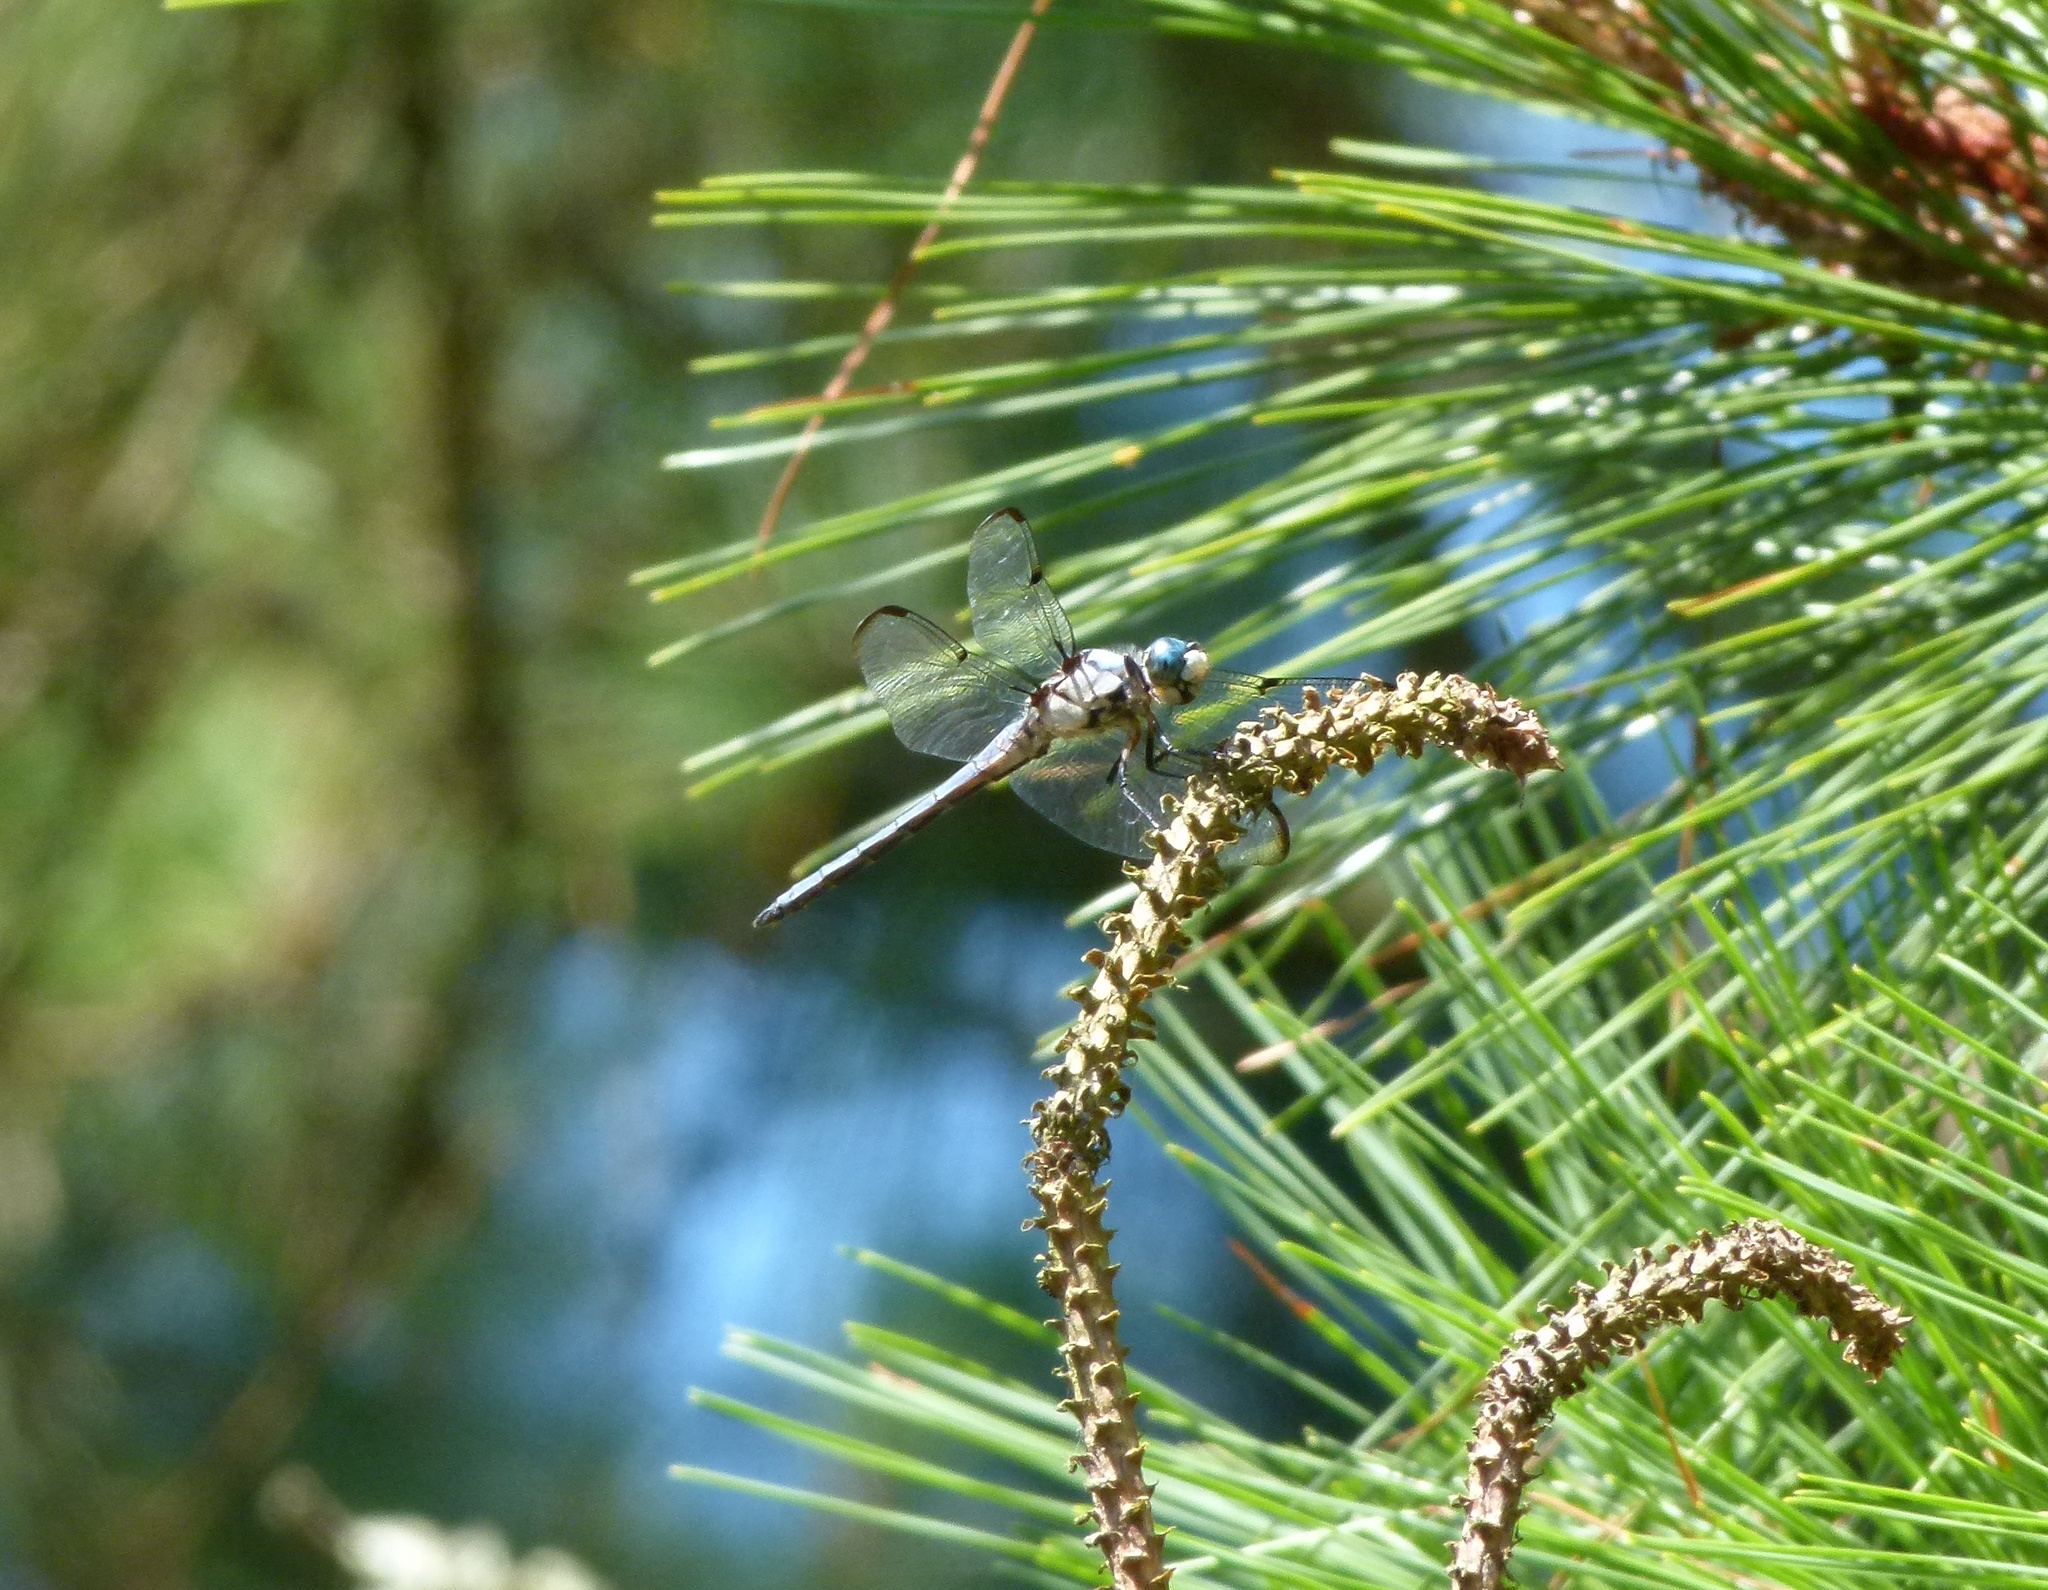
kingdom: Animalia
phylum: Arthropoda
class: Insecta
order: Odonata
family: Libellulidae
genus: Libellula
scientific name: Libellula vibrans
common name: Great blue skimmer
